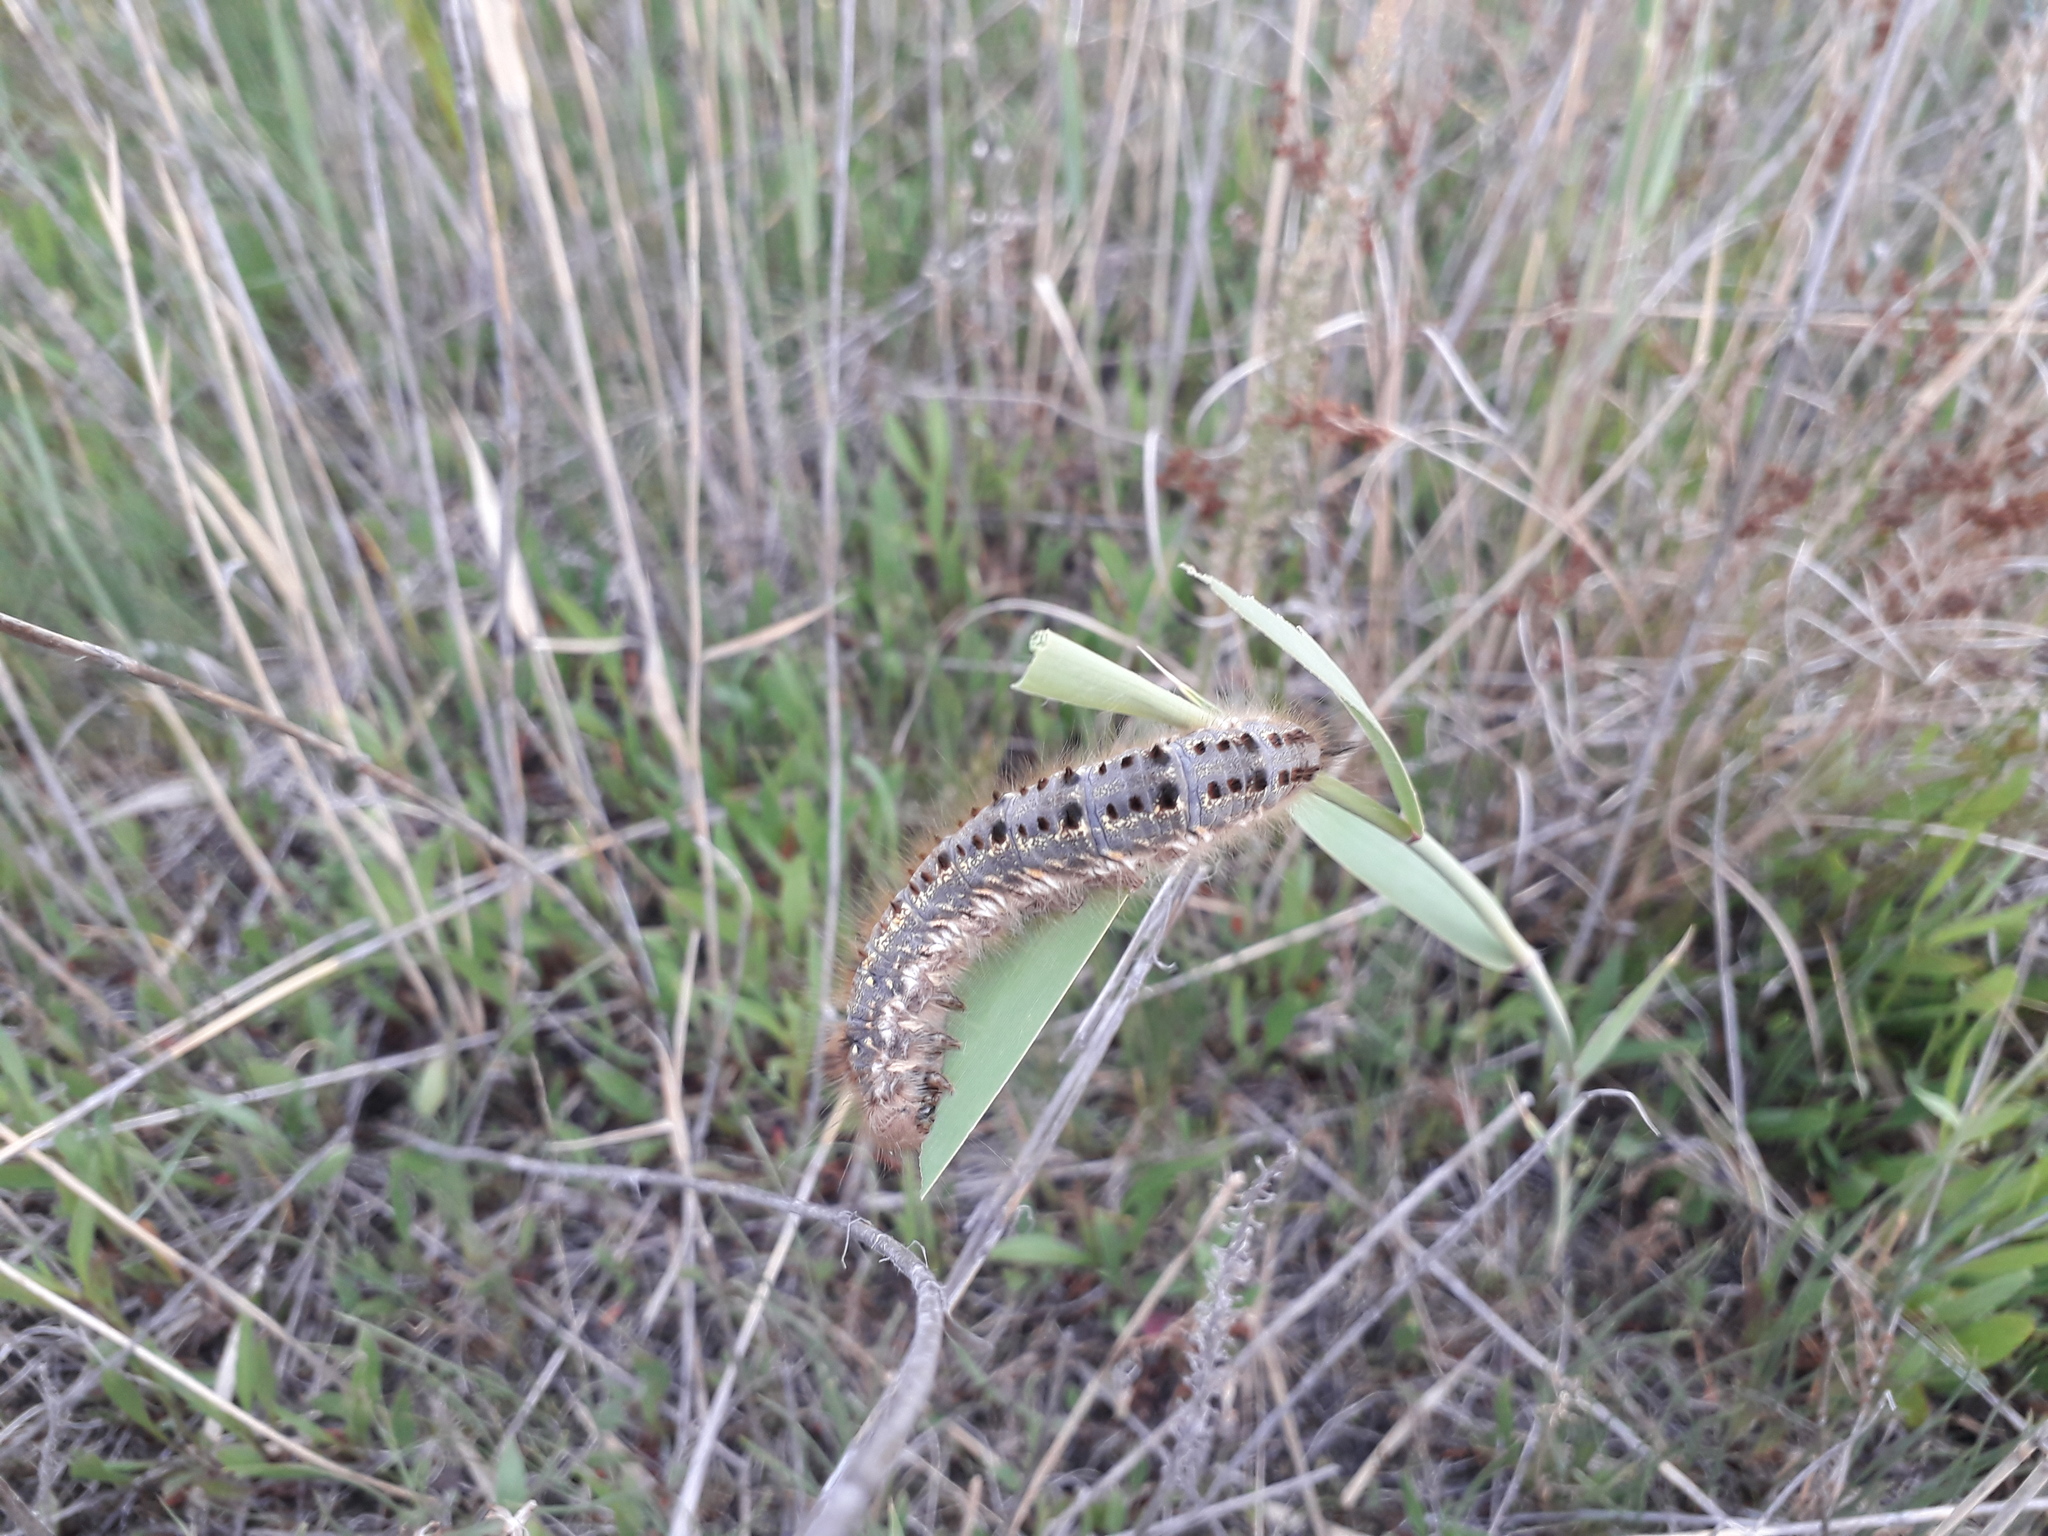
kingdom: Animalia
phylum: Arthropoda
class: Insecta
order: Lepidoptera
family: Lasiocampidae
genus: Euthrix
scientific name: Euthrix potatoria
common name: Drinker
